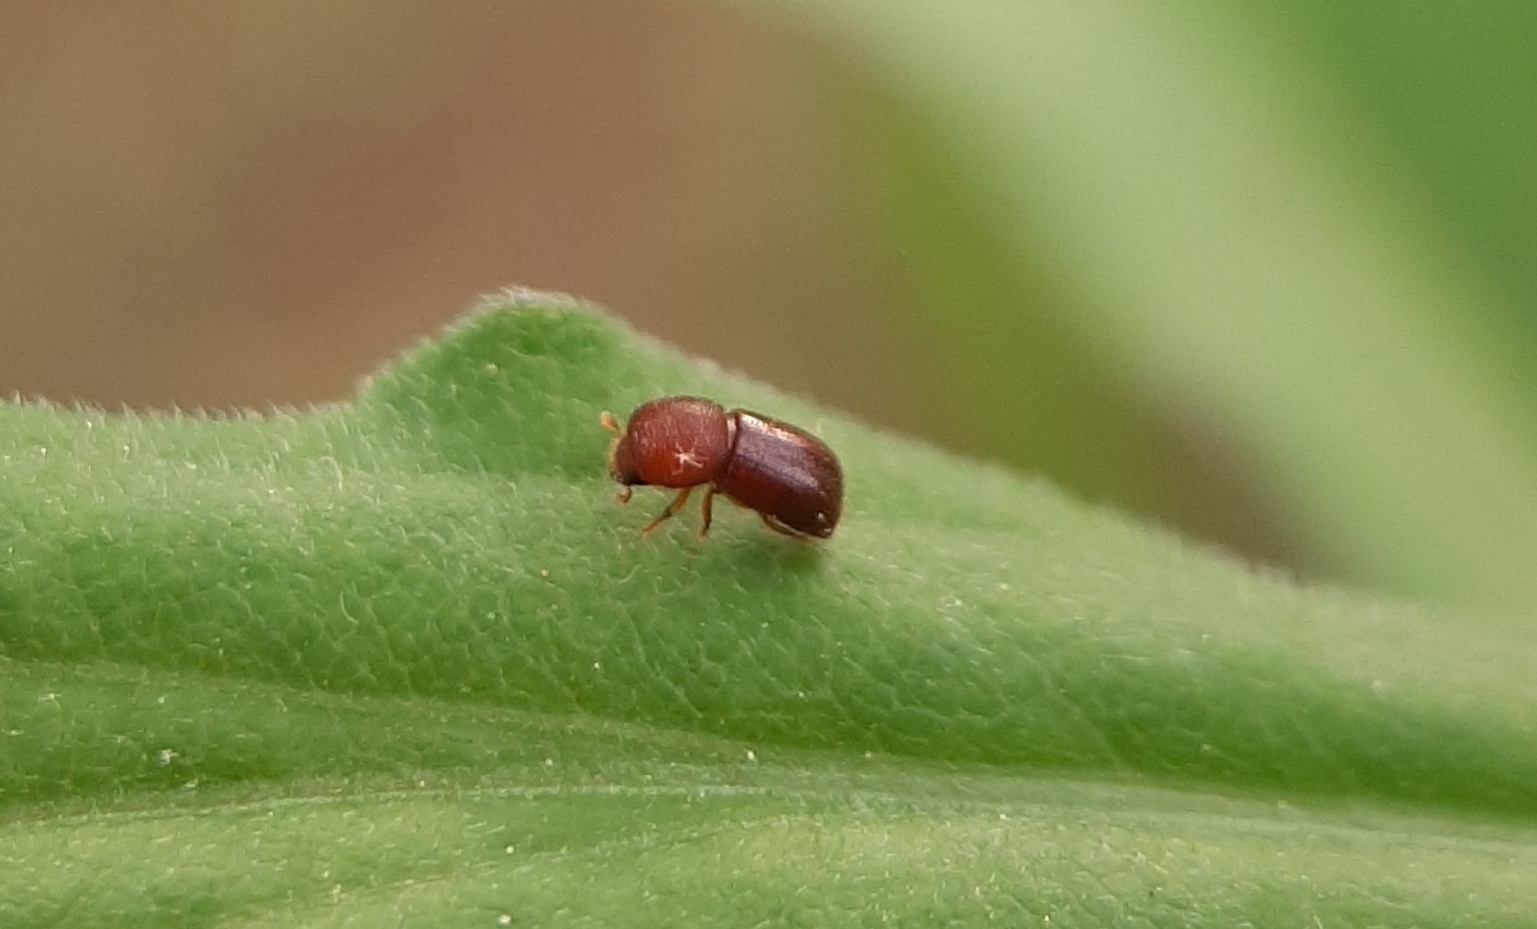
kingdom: Animalia
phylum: Arthropoda
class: Insecta
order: Coleoptera
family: Curculionidae
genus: Ambrosiodmus
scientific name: Ambrosiodmus rubricollis
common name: Bark beetle
